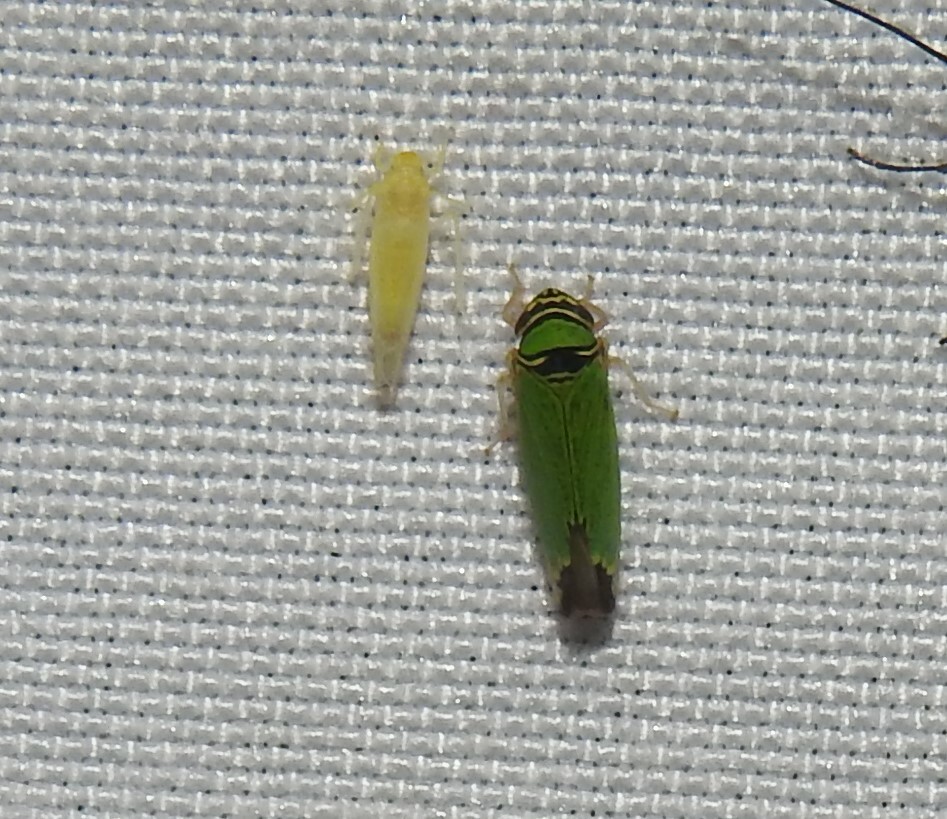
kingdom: Animalia
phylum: Arthropoda
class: Insecta
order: Hemiptera
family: Cicadellidae
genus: Tylozygus
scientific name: Tylozygus geometricus
